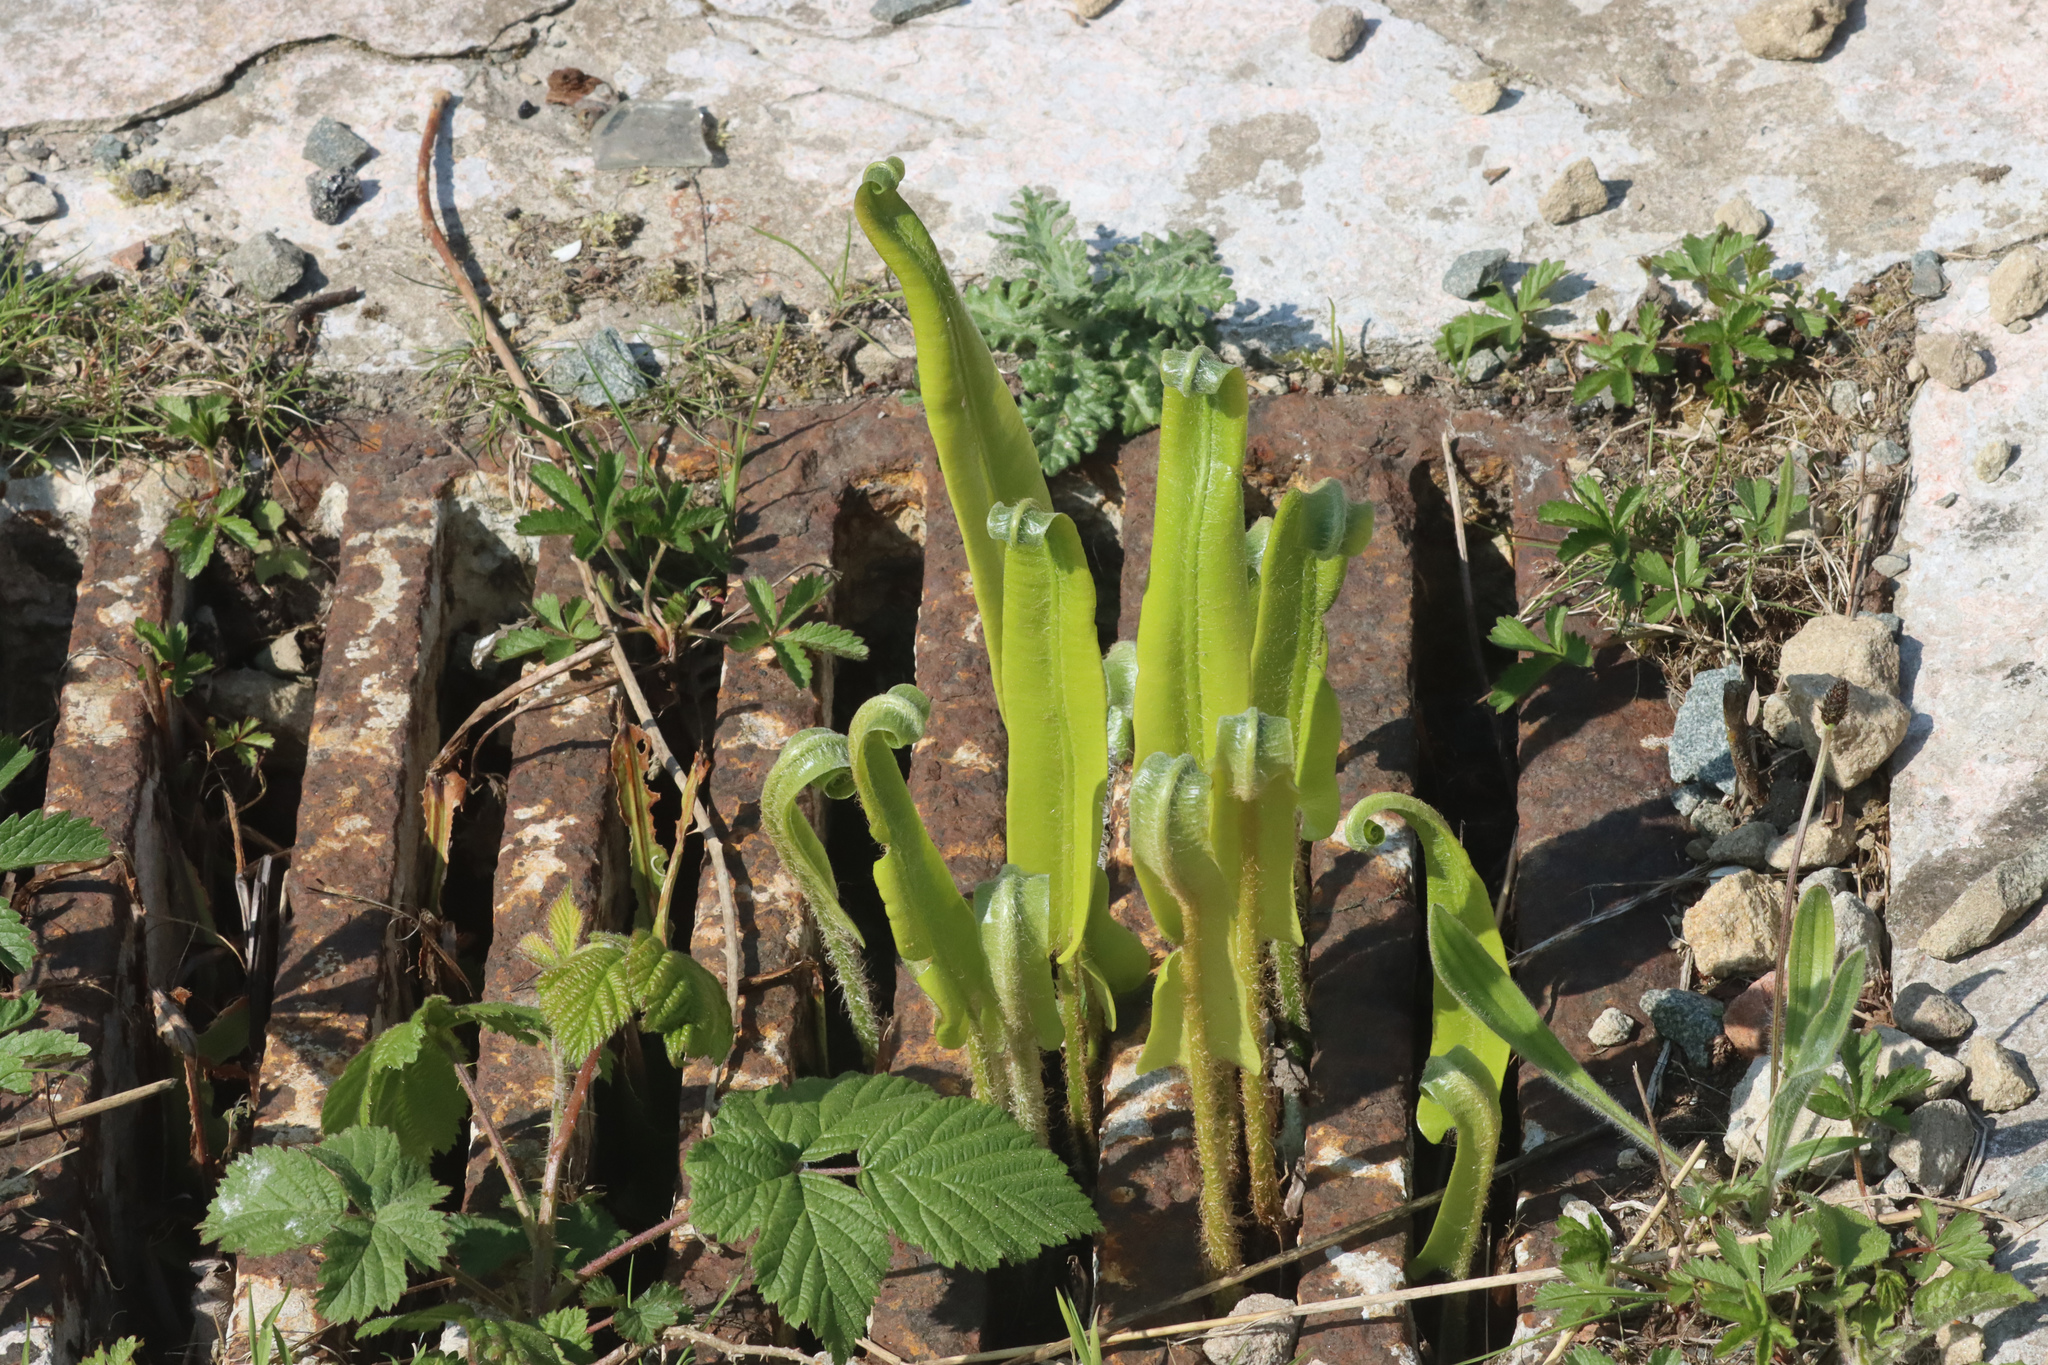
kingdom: Plantae
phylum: Tracheophyta
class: Polypodiopsida
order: Polypodiales
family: Aspleniaceae
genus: Asplenium
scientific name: Asplenium scolopendrium
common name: Hart's-tongue fern
